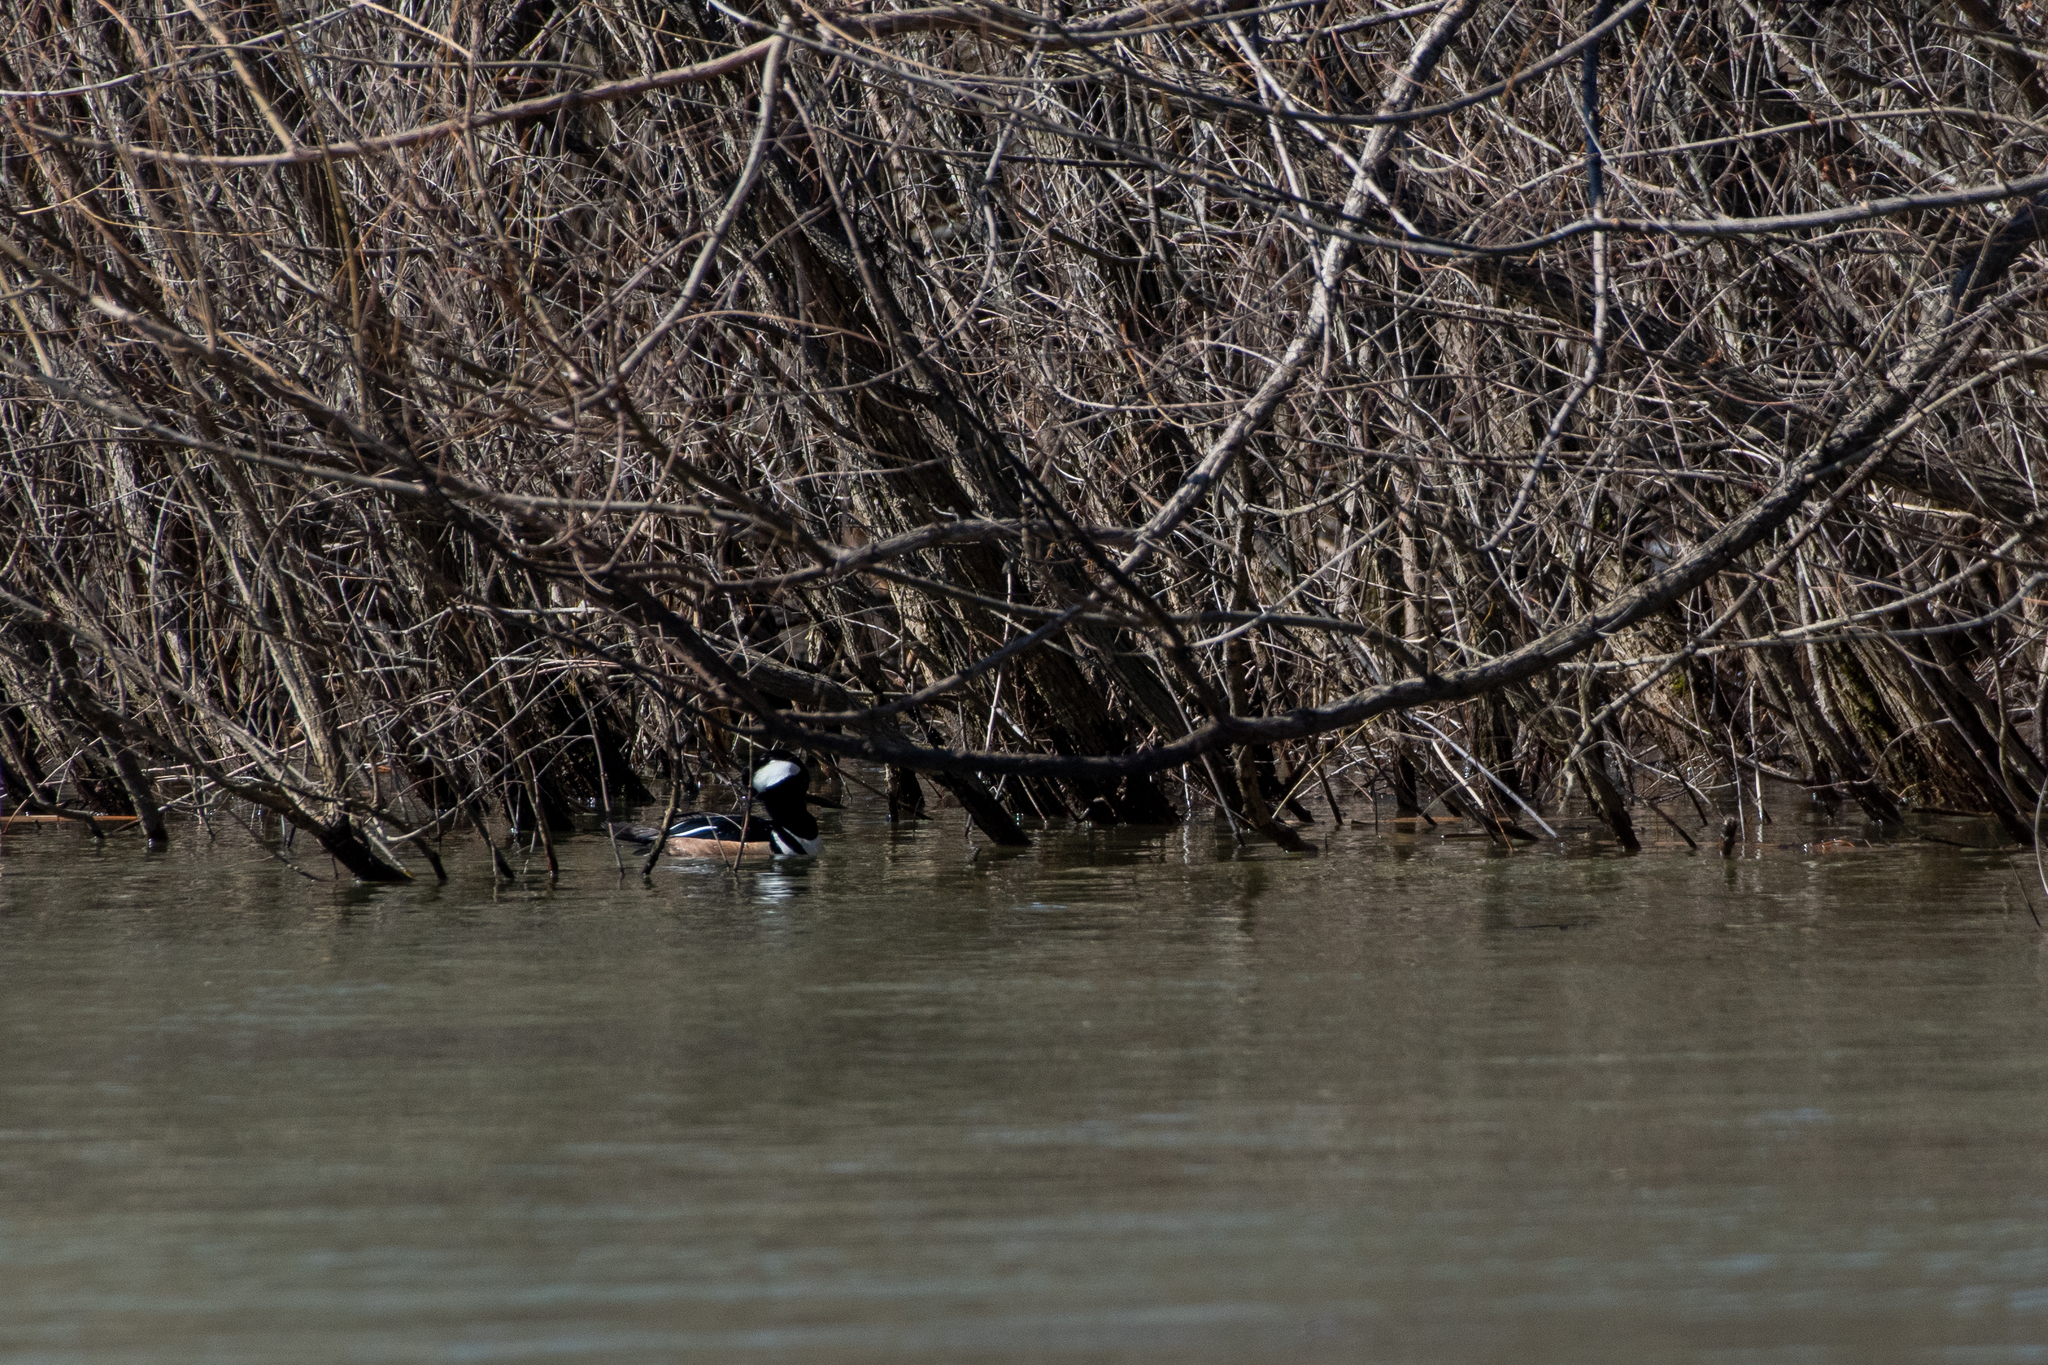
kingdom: Animalia
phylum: Chordata
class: Aves
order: Anseriformes
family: Anatidae
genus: Lophodytes
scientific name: Lophodytes cucullatus
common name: Hooded merganser
